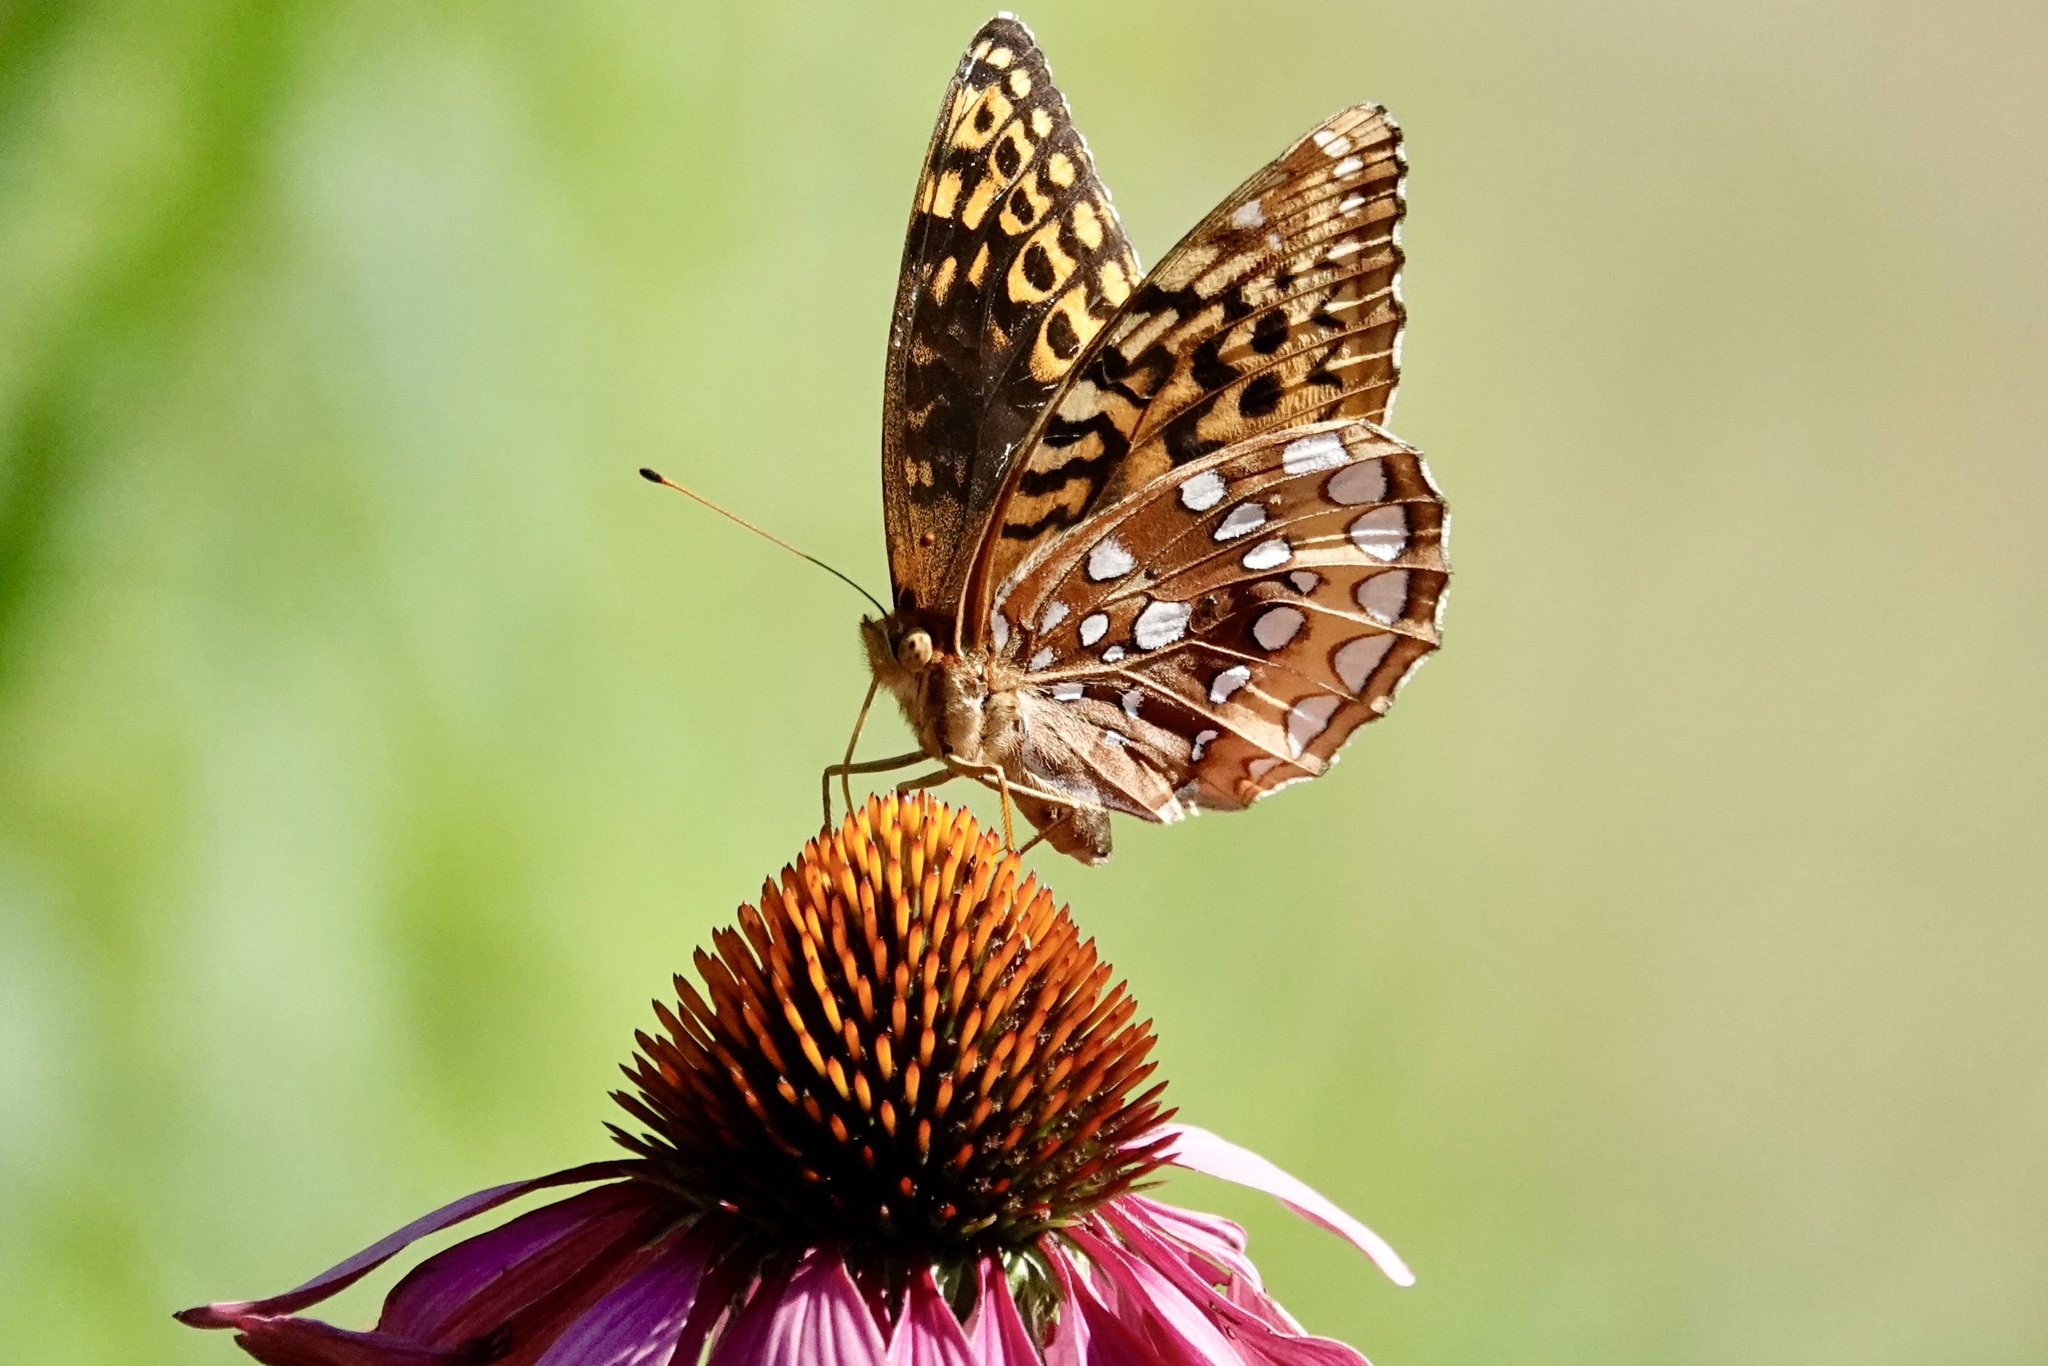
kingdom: Animalia
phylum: Arthropoda
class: Insecta
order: Lepidoptera
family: Nymphalidae
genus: Speyeria
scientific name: Speyeria cybele
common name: Great spangled fritillary
